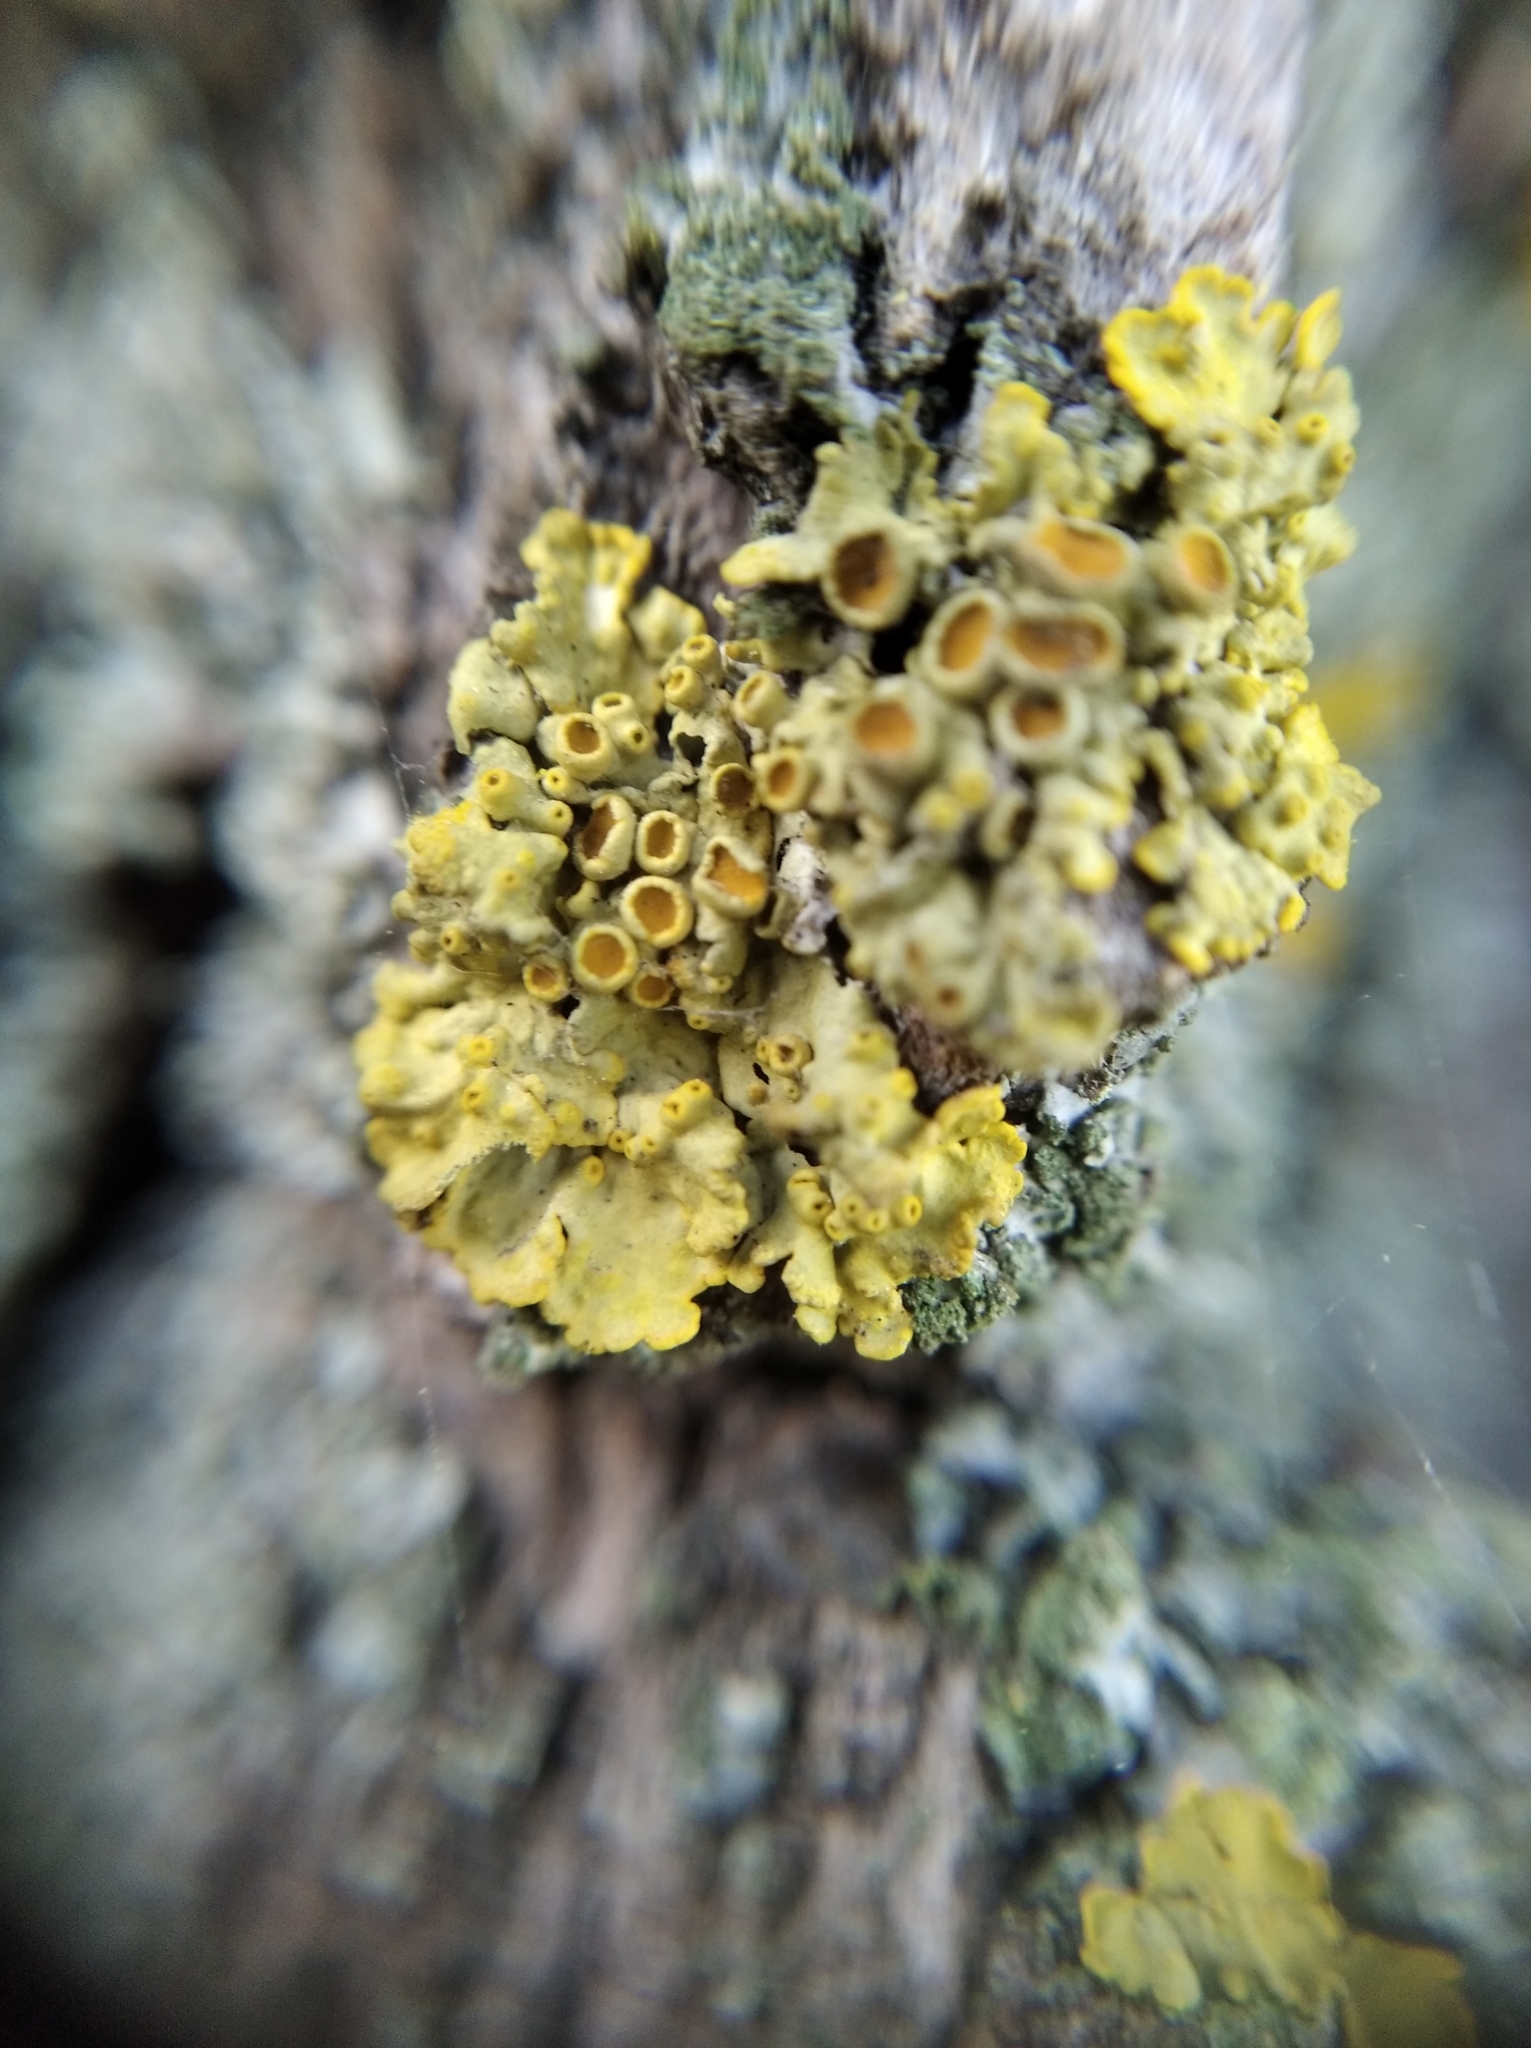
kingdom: Fungi
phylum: Ascomycota
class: Lecanoromycetes
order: Teloschistales
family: Teloschistaceae
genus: Xanthoria
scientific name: Xanthoria parietina
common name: Common orange lichen
